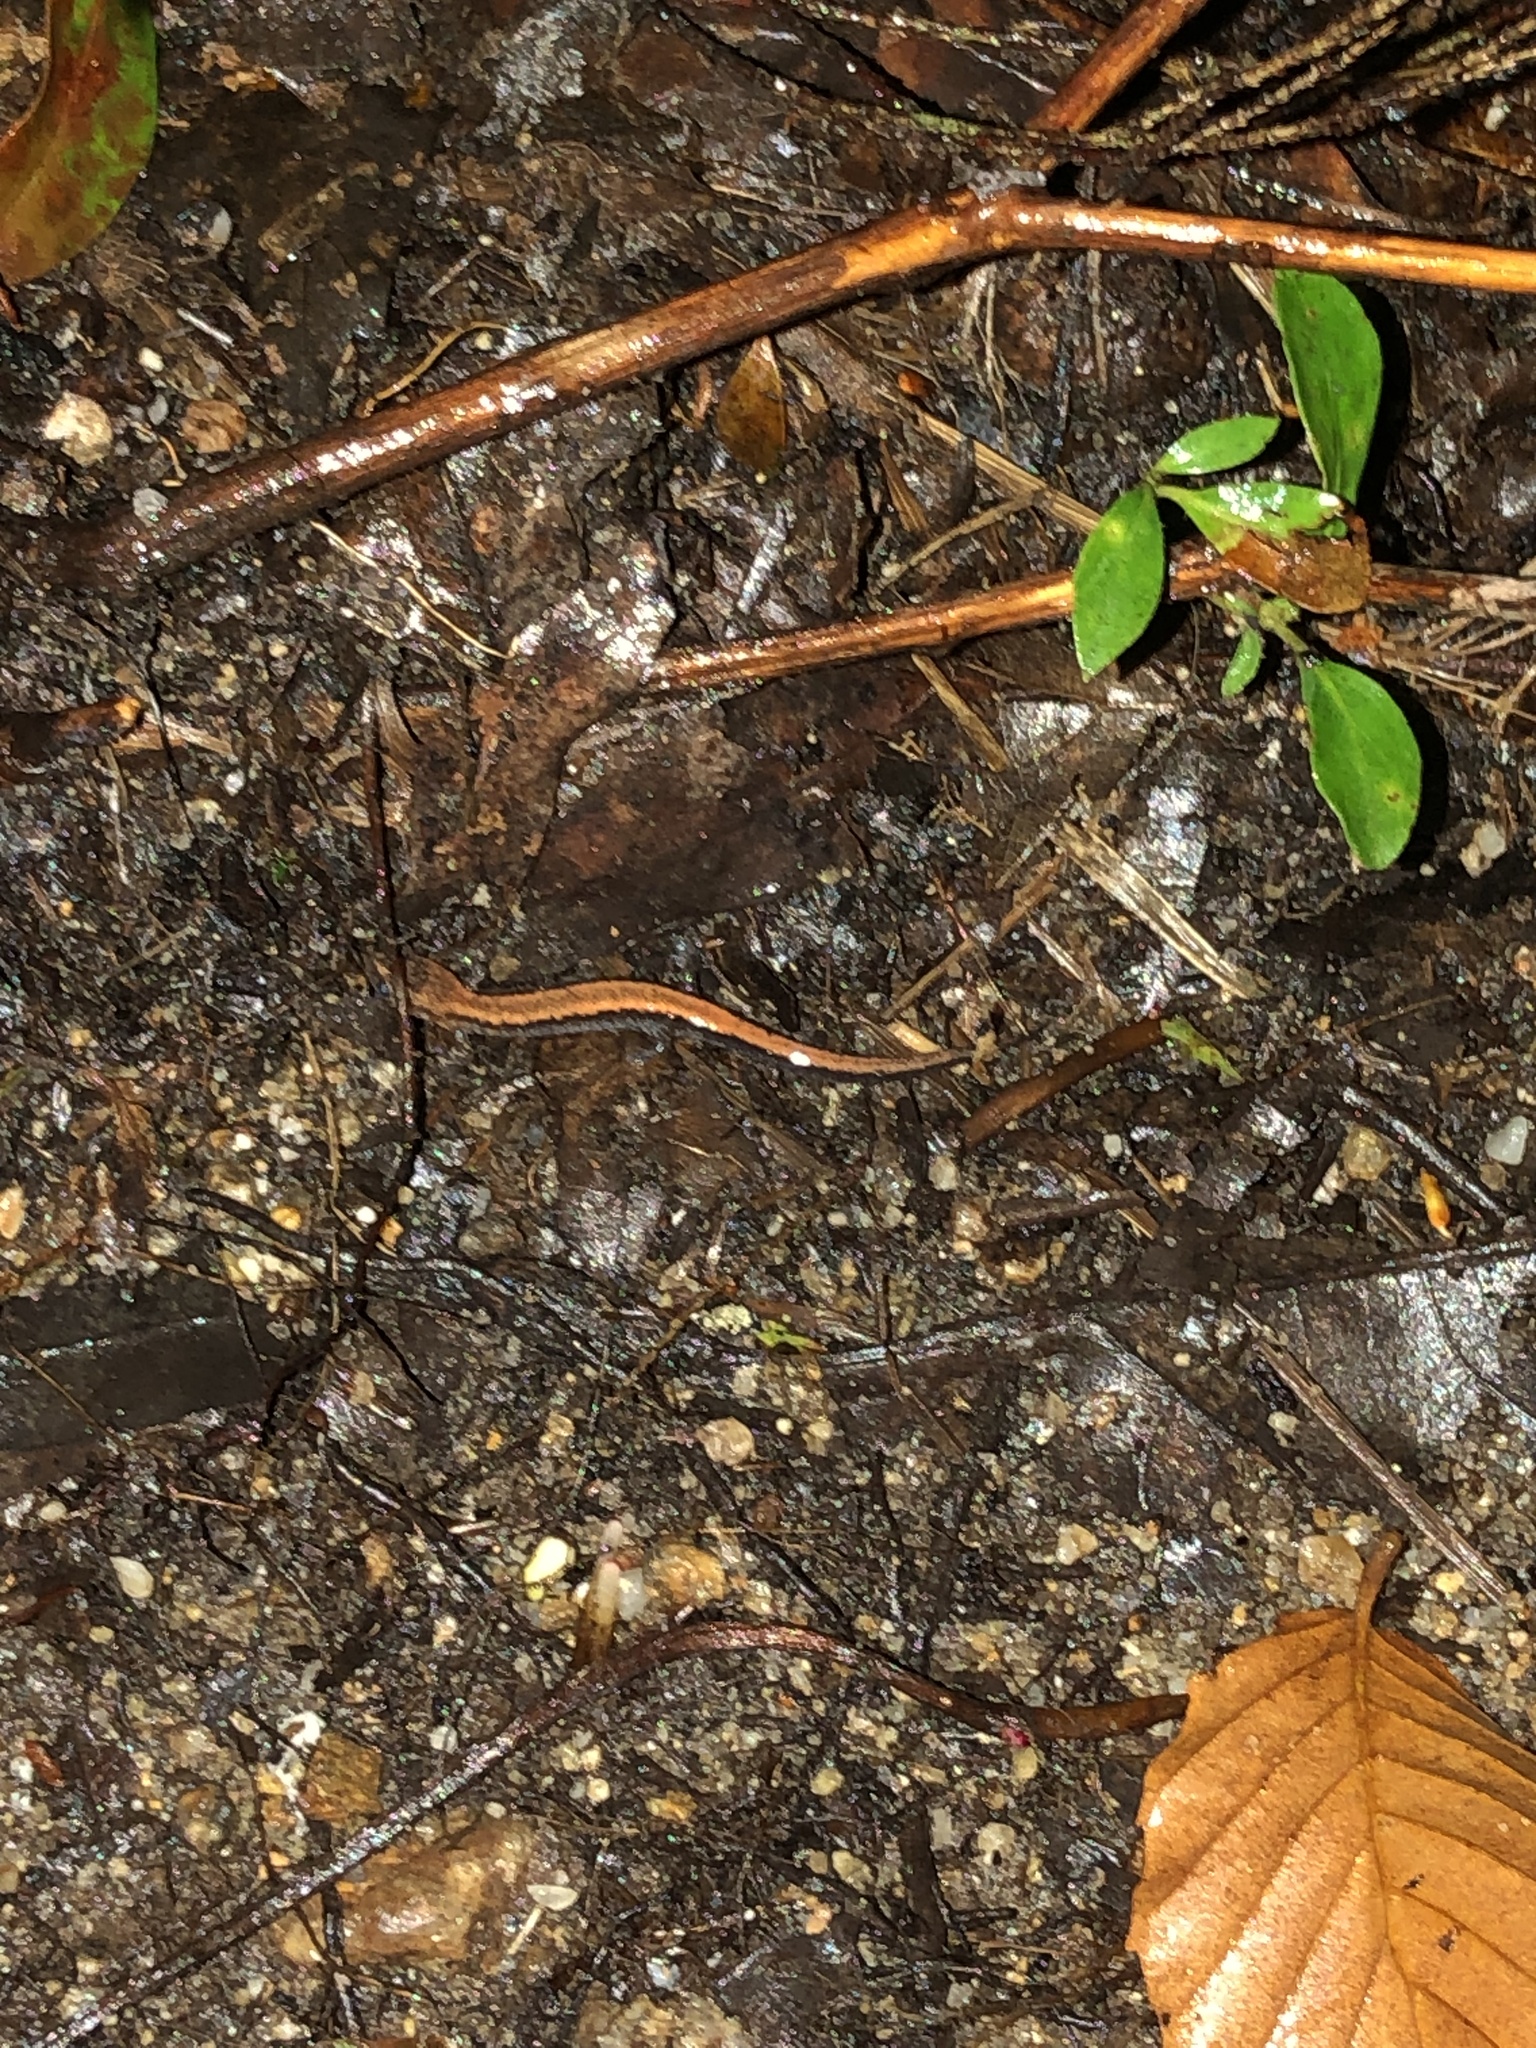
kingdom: Animalia
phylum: Chordata
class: Amphibia
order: Caudata
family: Plethodontidae
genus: Plethodon
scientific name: Plethodon cinereus
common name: Redback salamander
